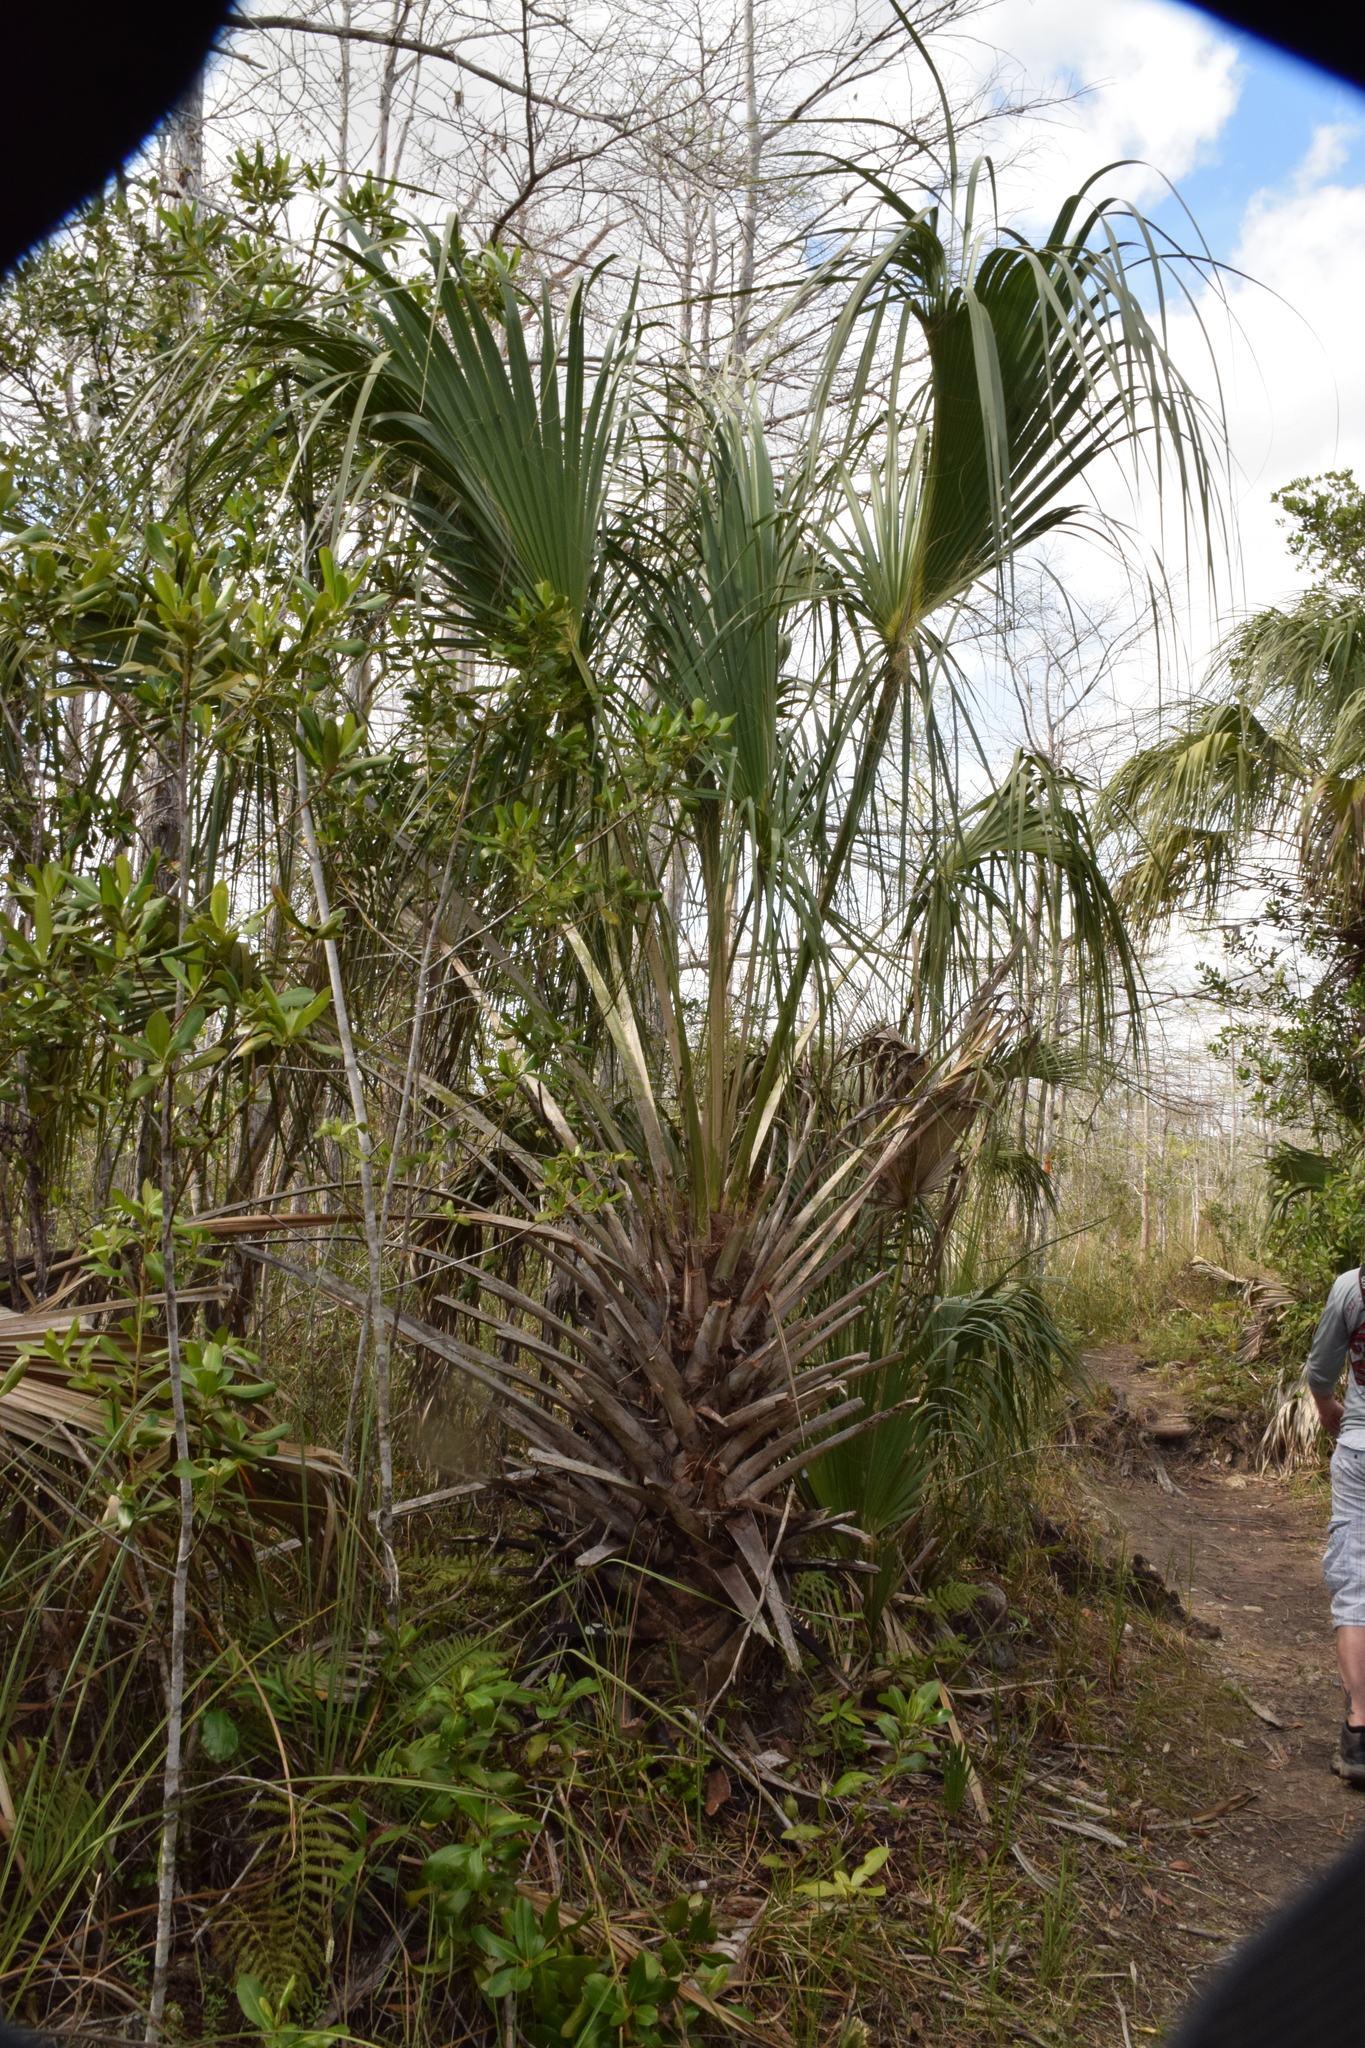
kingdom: Plantae
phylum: Tracheophyta
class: Liliopsida
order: Arecales
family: Arecaceae
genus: Sabal
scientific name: Sabal palmetto
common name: Blue palmetto
